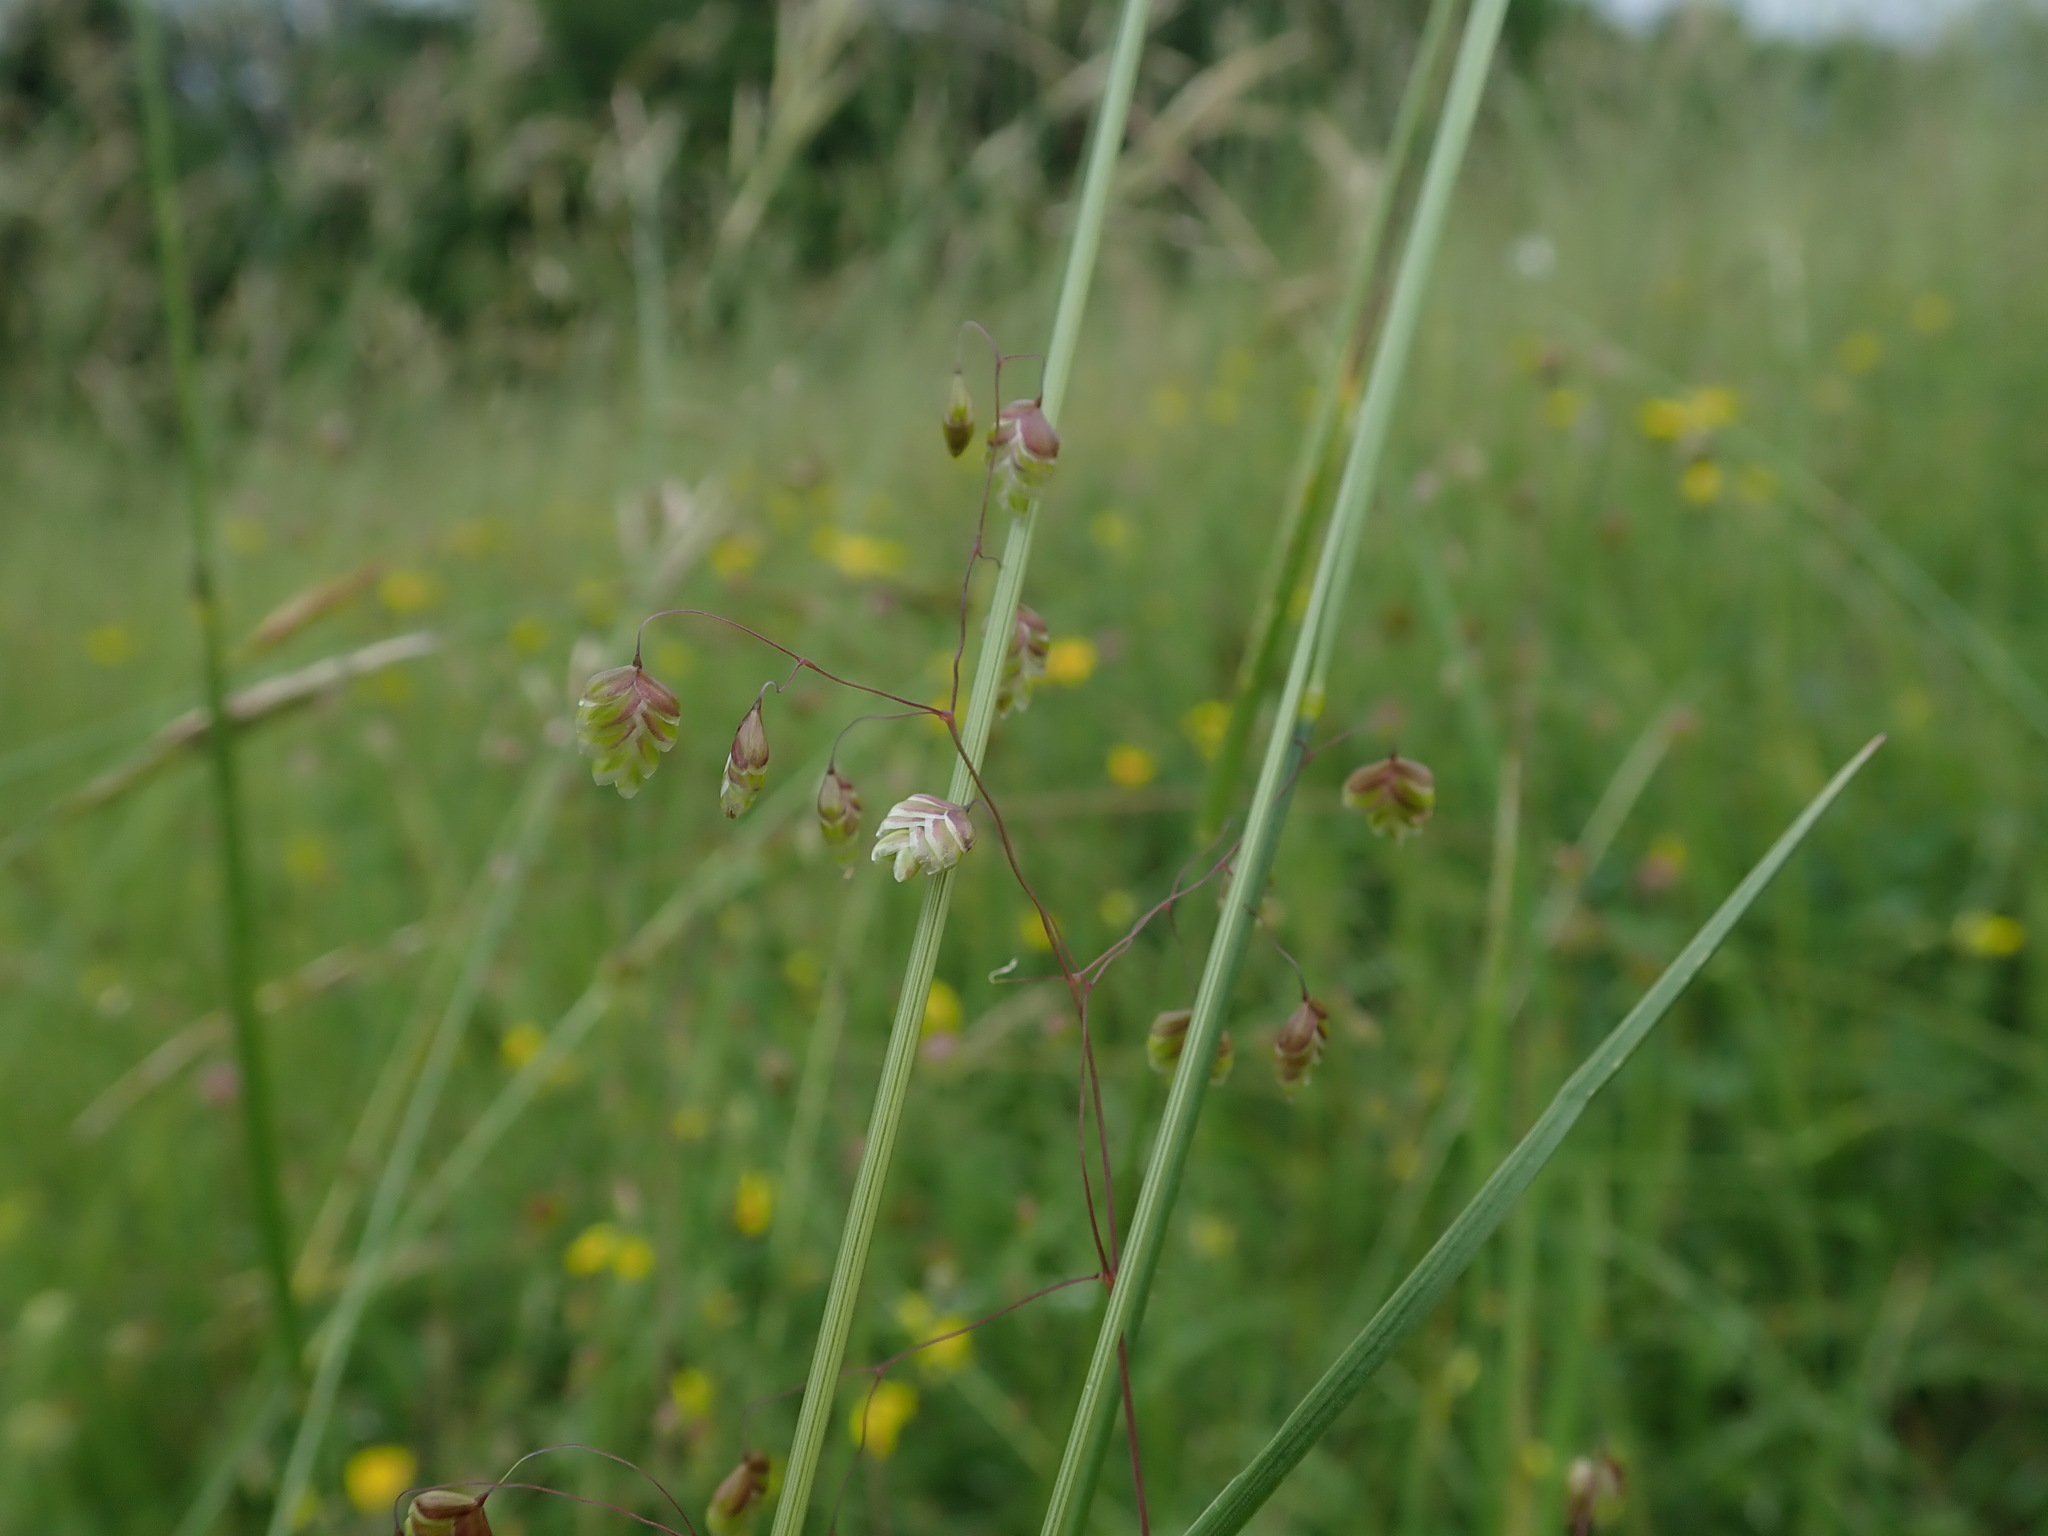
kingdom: Plantae
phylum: Tracheophyta
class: Liliopsida
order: Poales
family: Poaceae
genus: Briza
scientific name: Briza media
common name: Quaking grass
